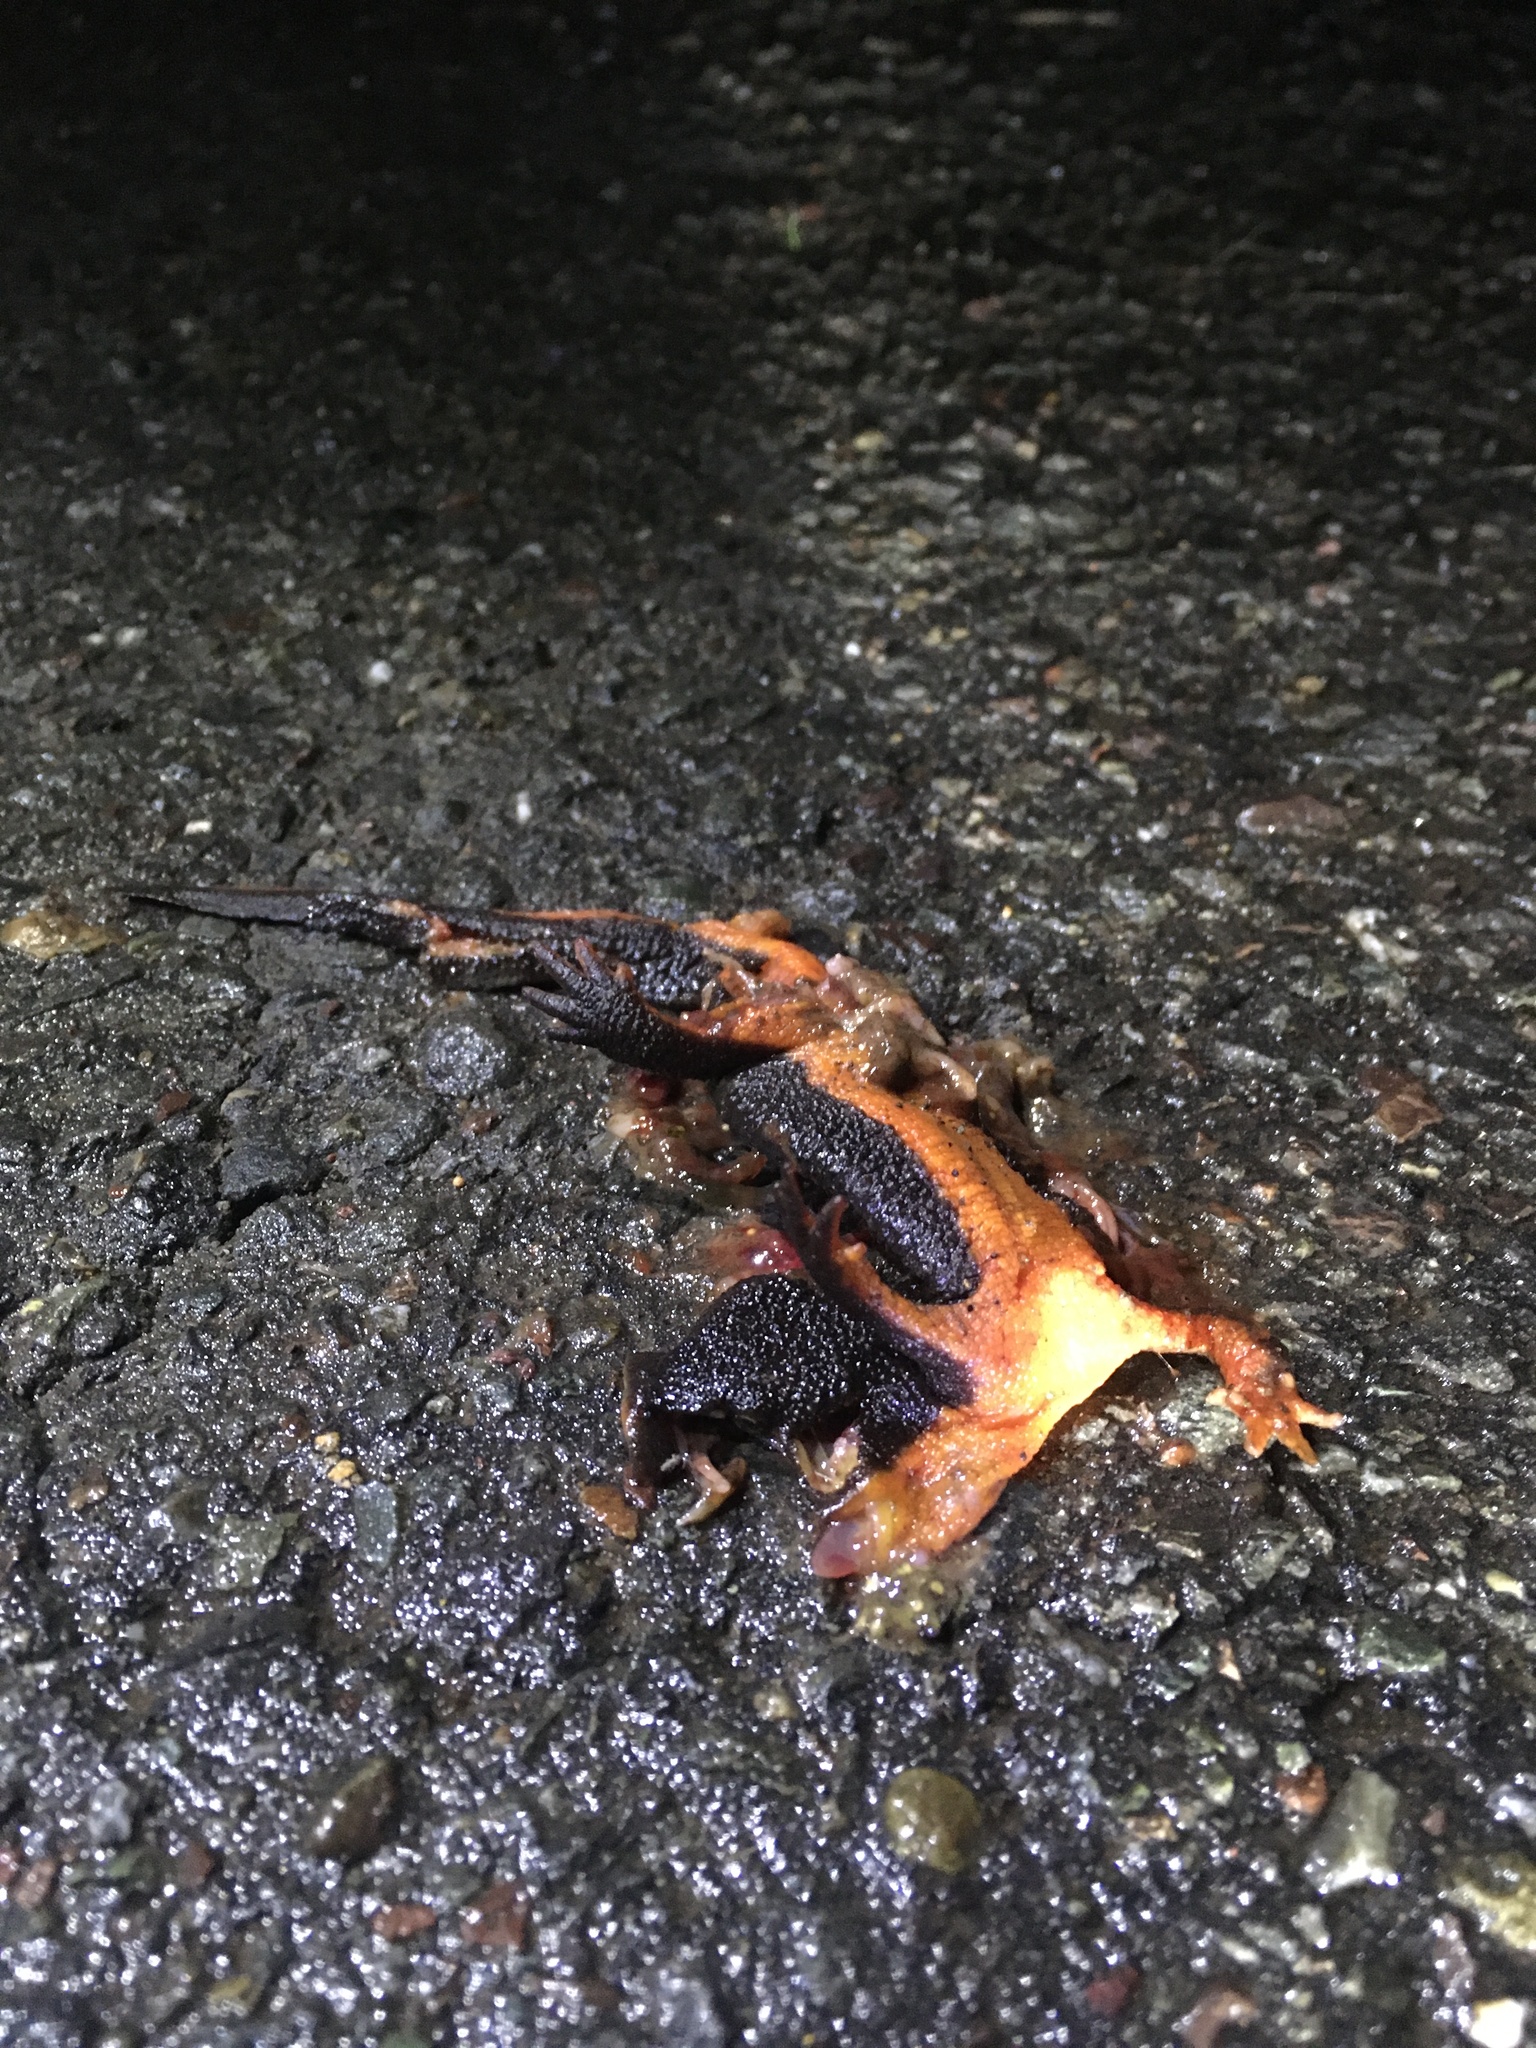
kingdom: Animalia
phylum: Chordata
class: Amphibia
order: Caudata
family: Salamandridae
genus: Taricha
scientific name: Taricha
